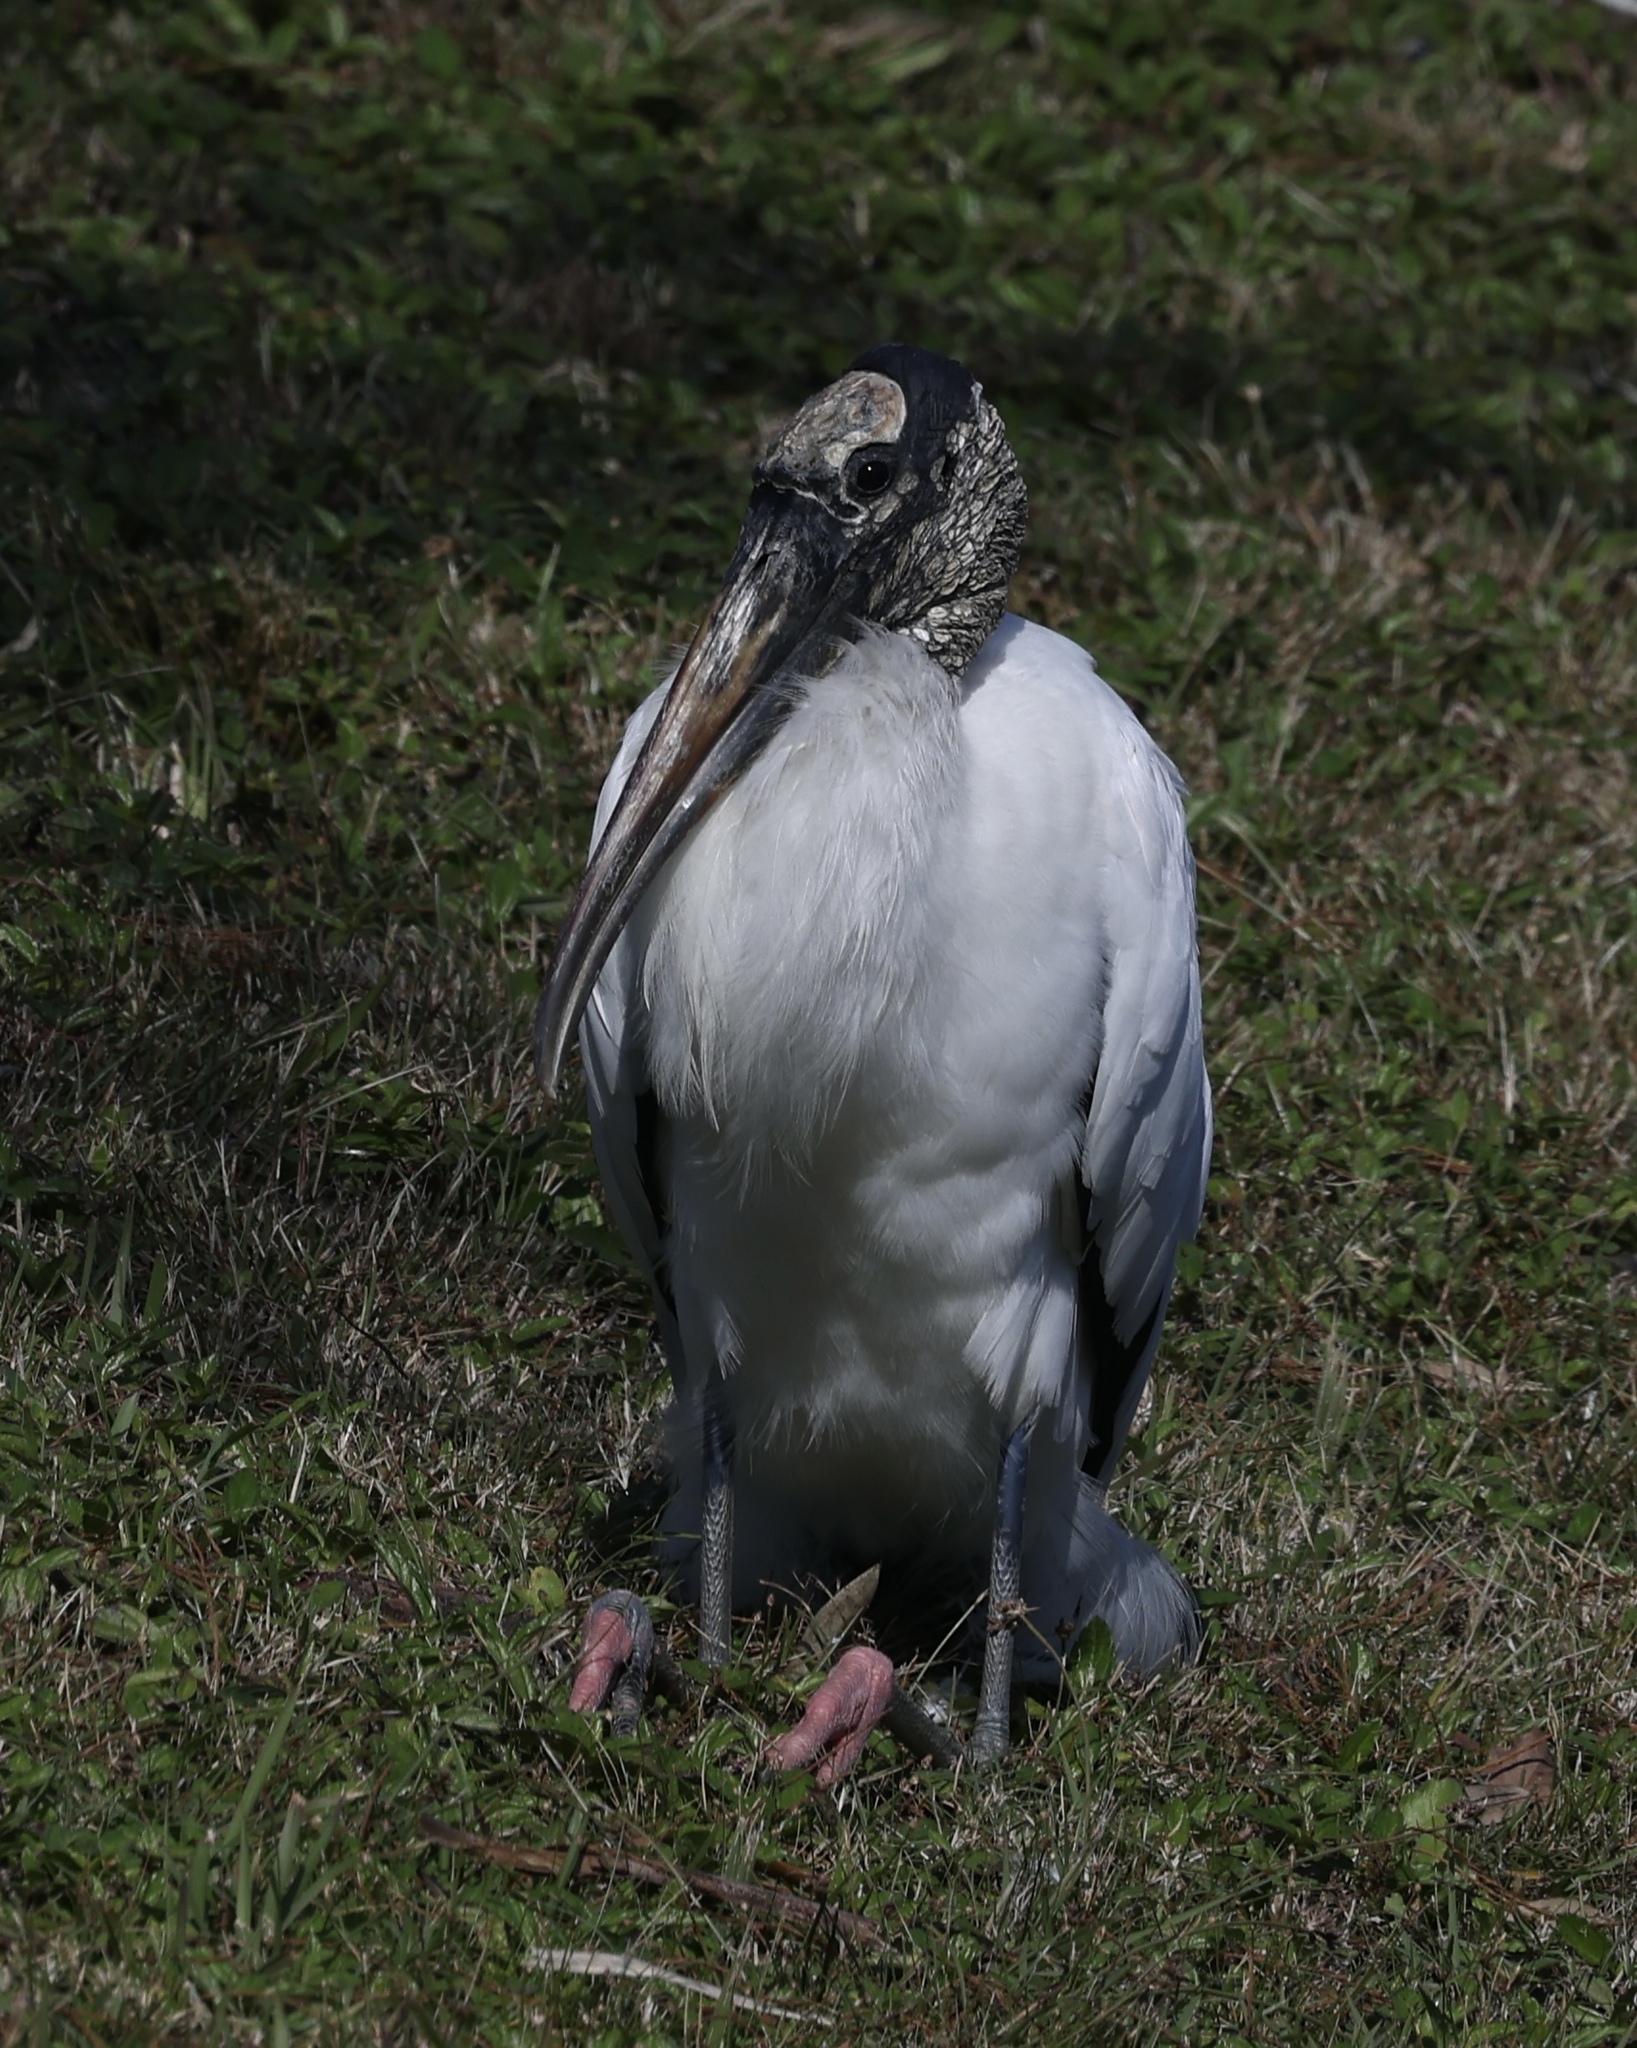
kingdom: Animalia
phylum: Chordata
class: Aves
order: Ciconiiformes
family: Ciconiidae
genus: Mycteria
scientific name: Mycteria americana
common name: Wood stork
